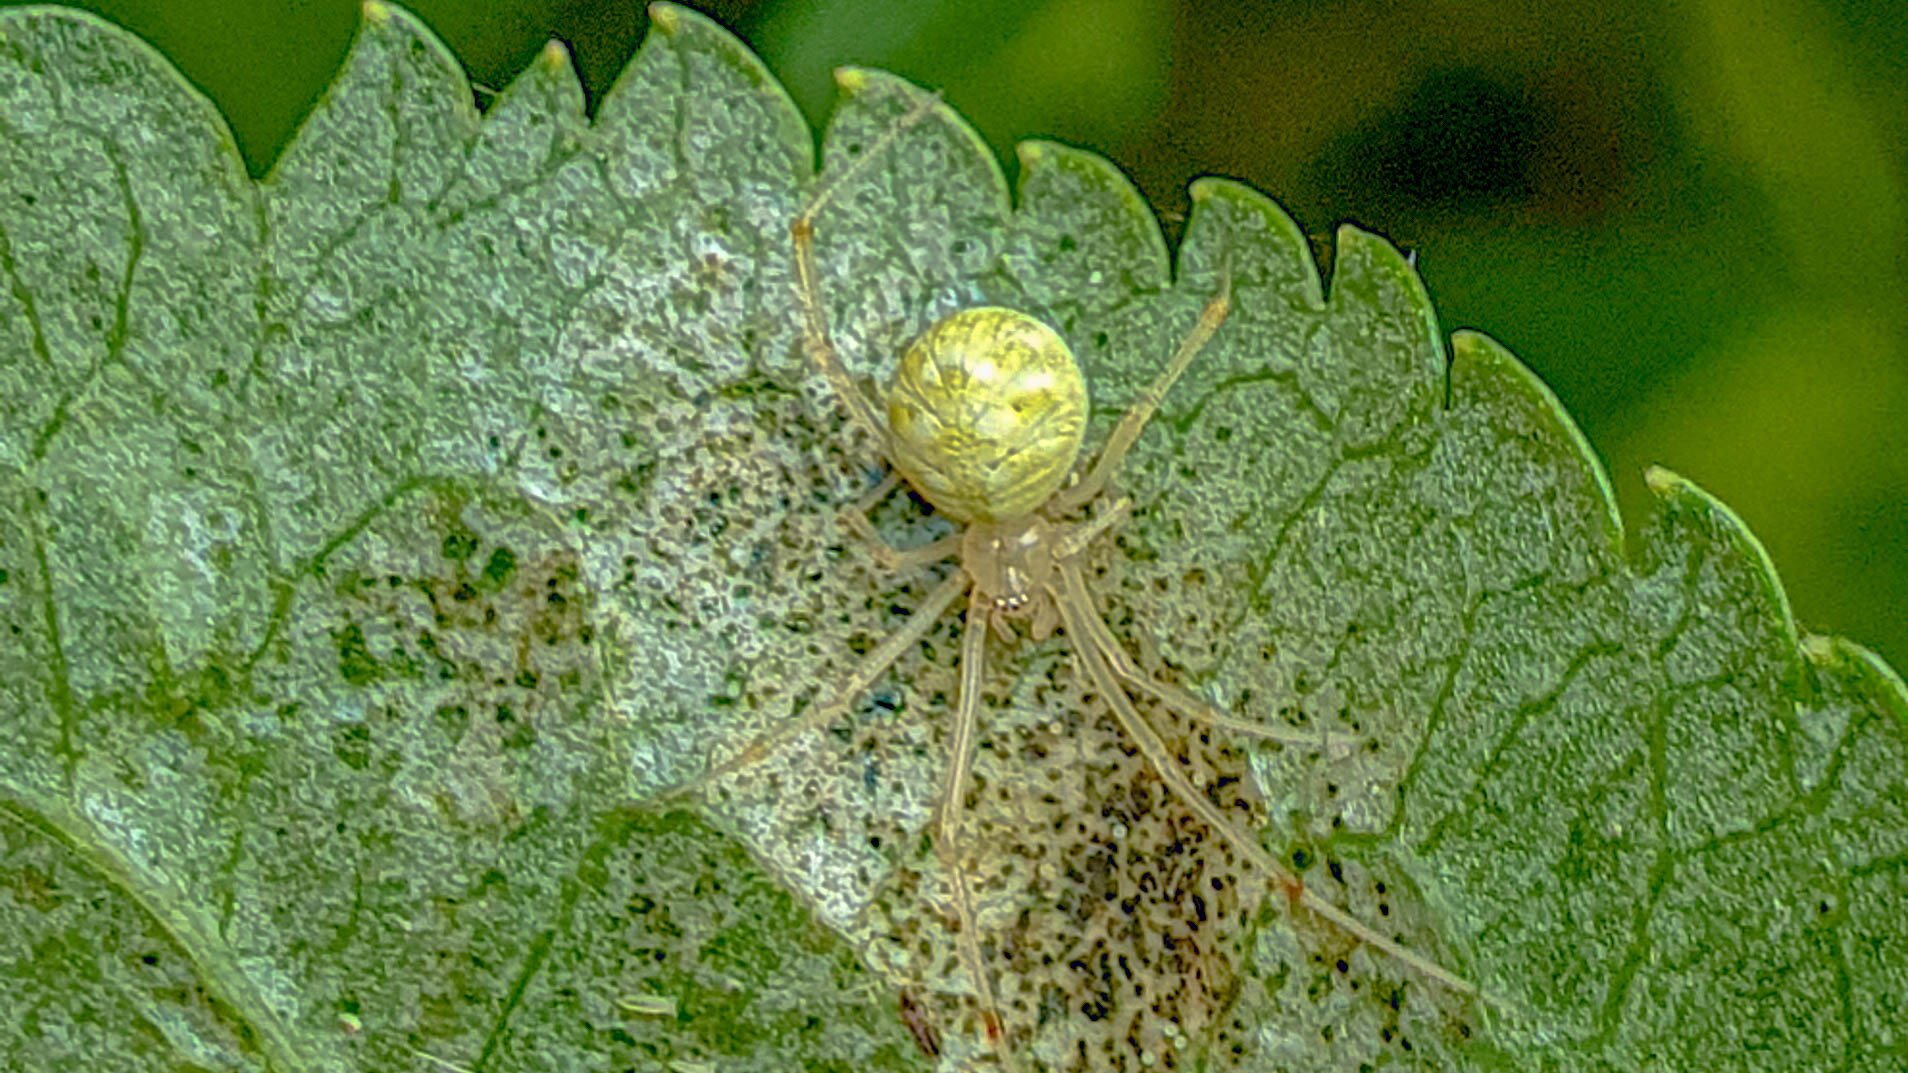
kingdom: Animalia
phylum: Arthropoda
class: Arachnida
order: Araneae
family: Theridiidae
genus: Heterotheridion
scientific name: Heterotheridion nigrovariegatum
